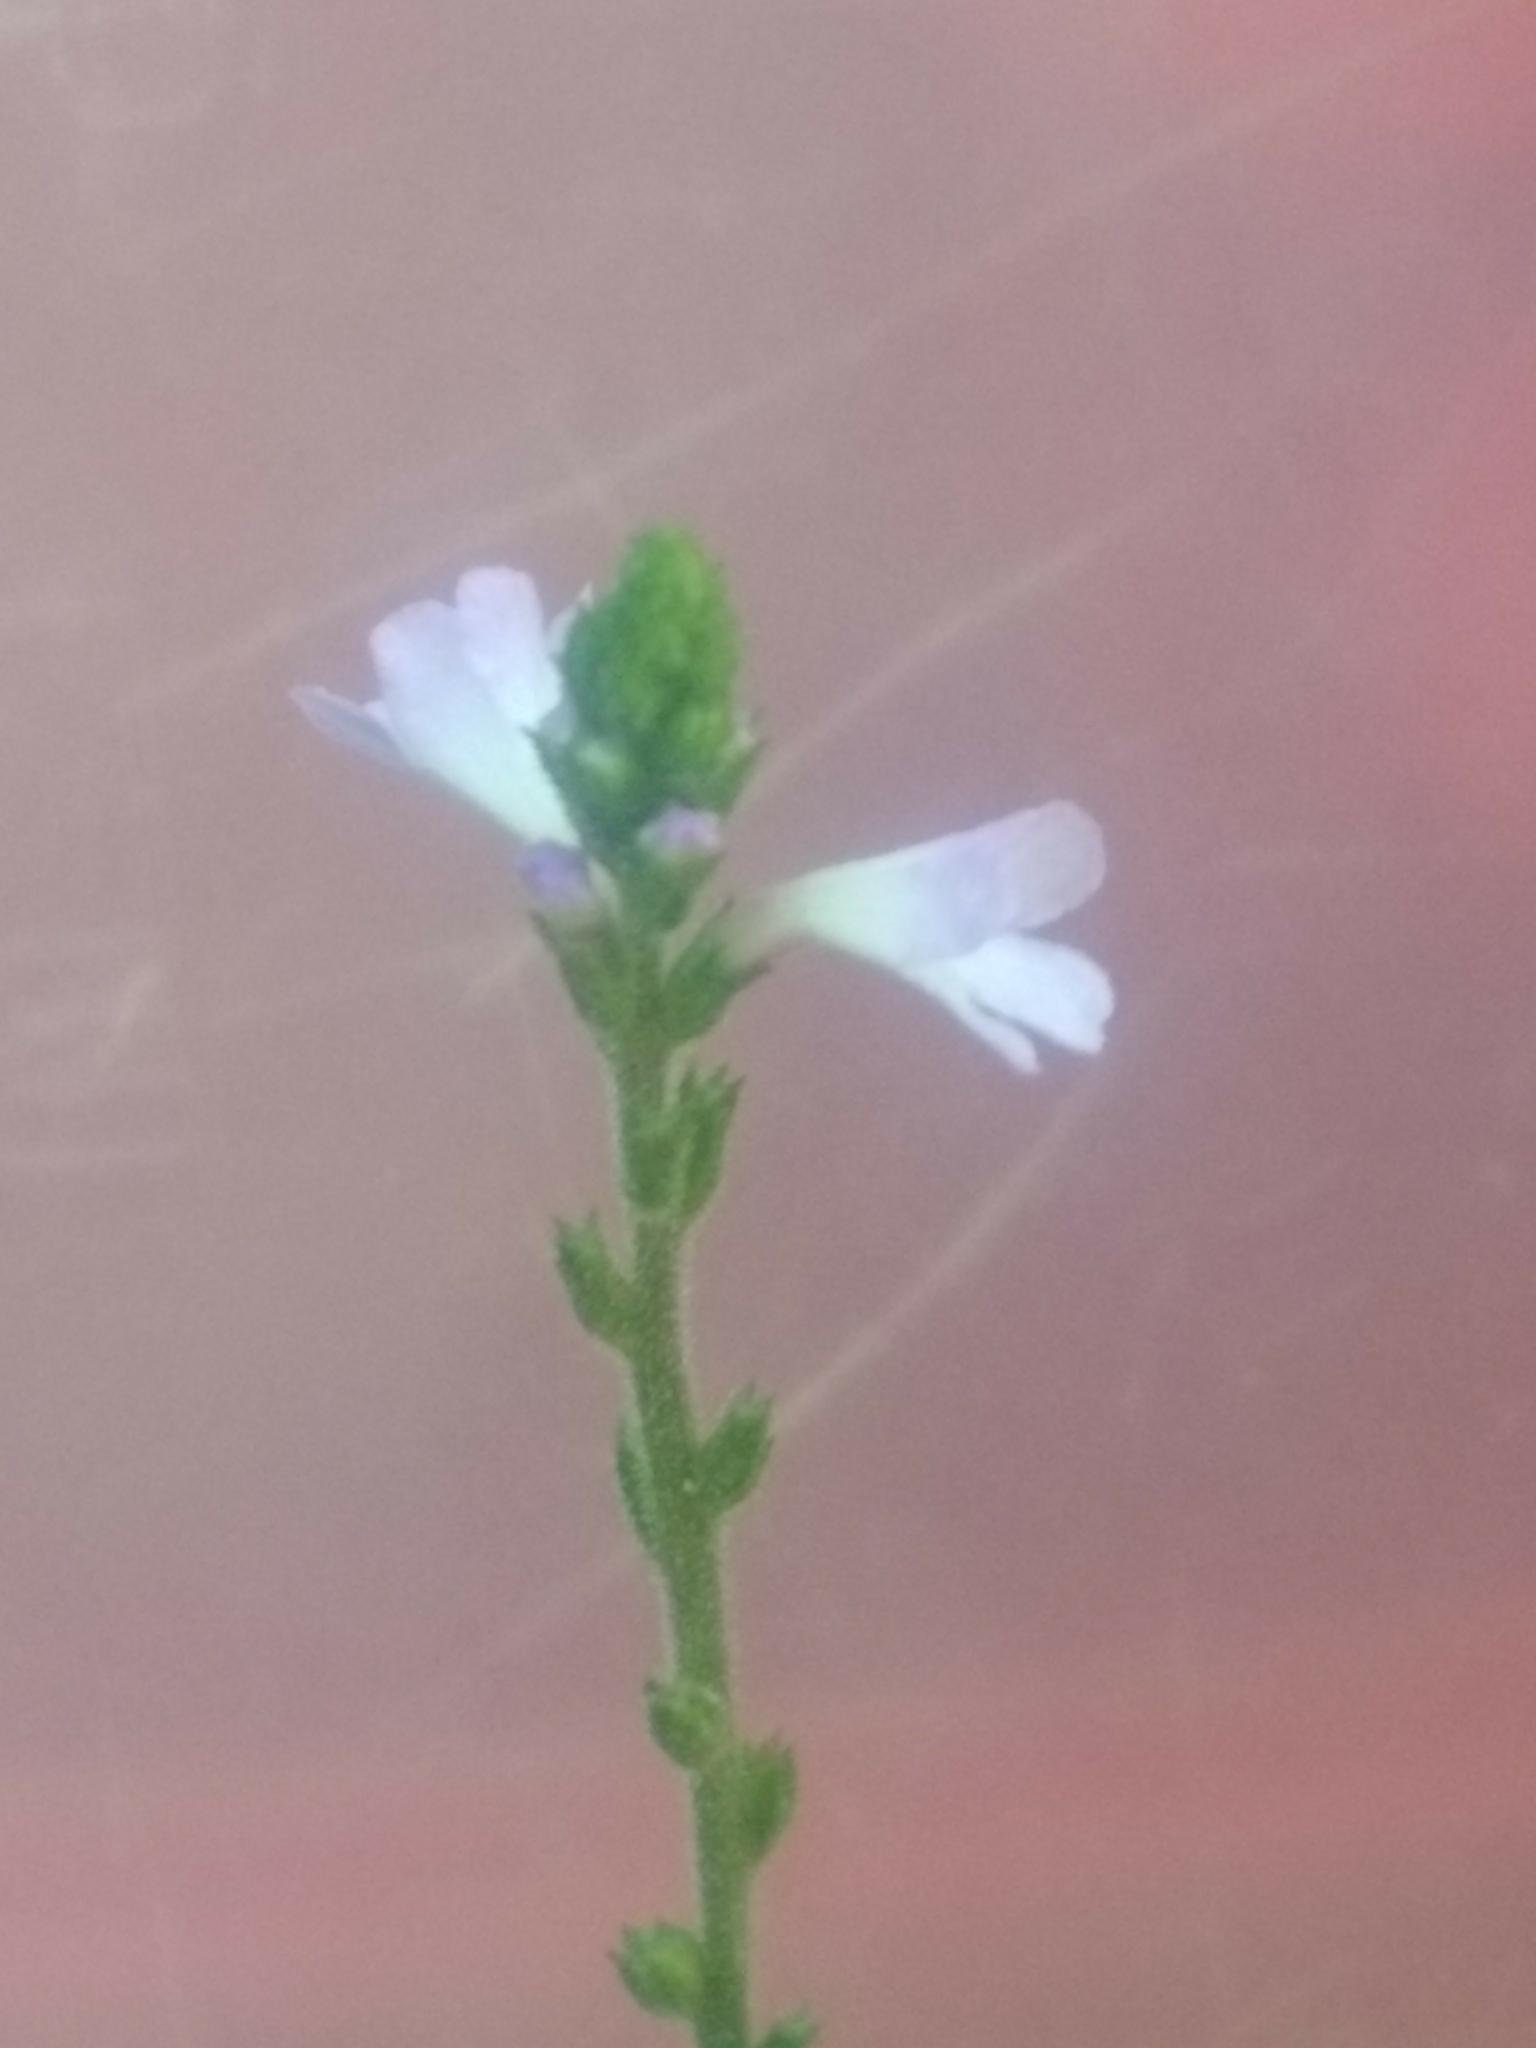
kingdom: Plantae
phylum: Tracheophyta
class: Magnoliopsida
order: Lamiales
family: Verbenaceae
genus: Verbena
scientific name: Verbena officinalis
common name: Vervain
